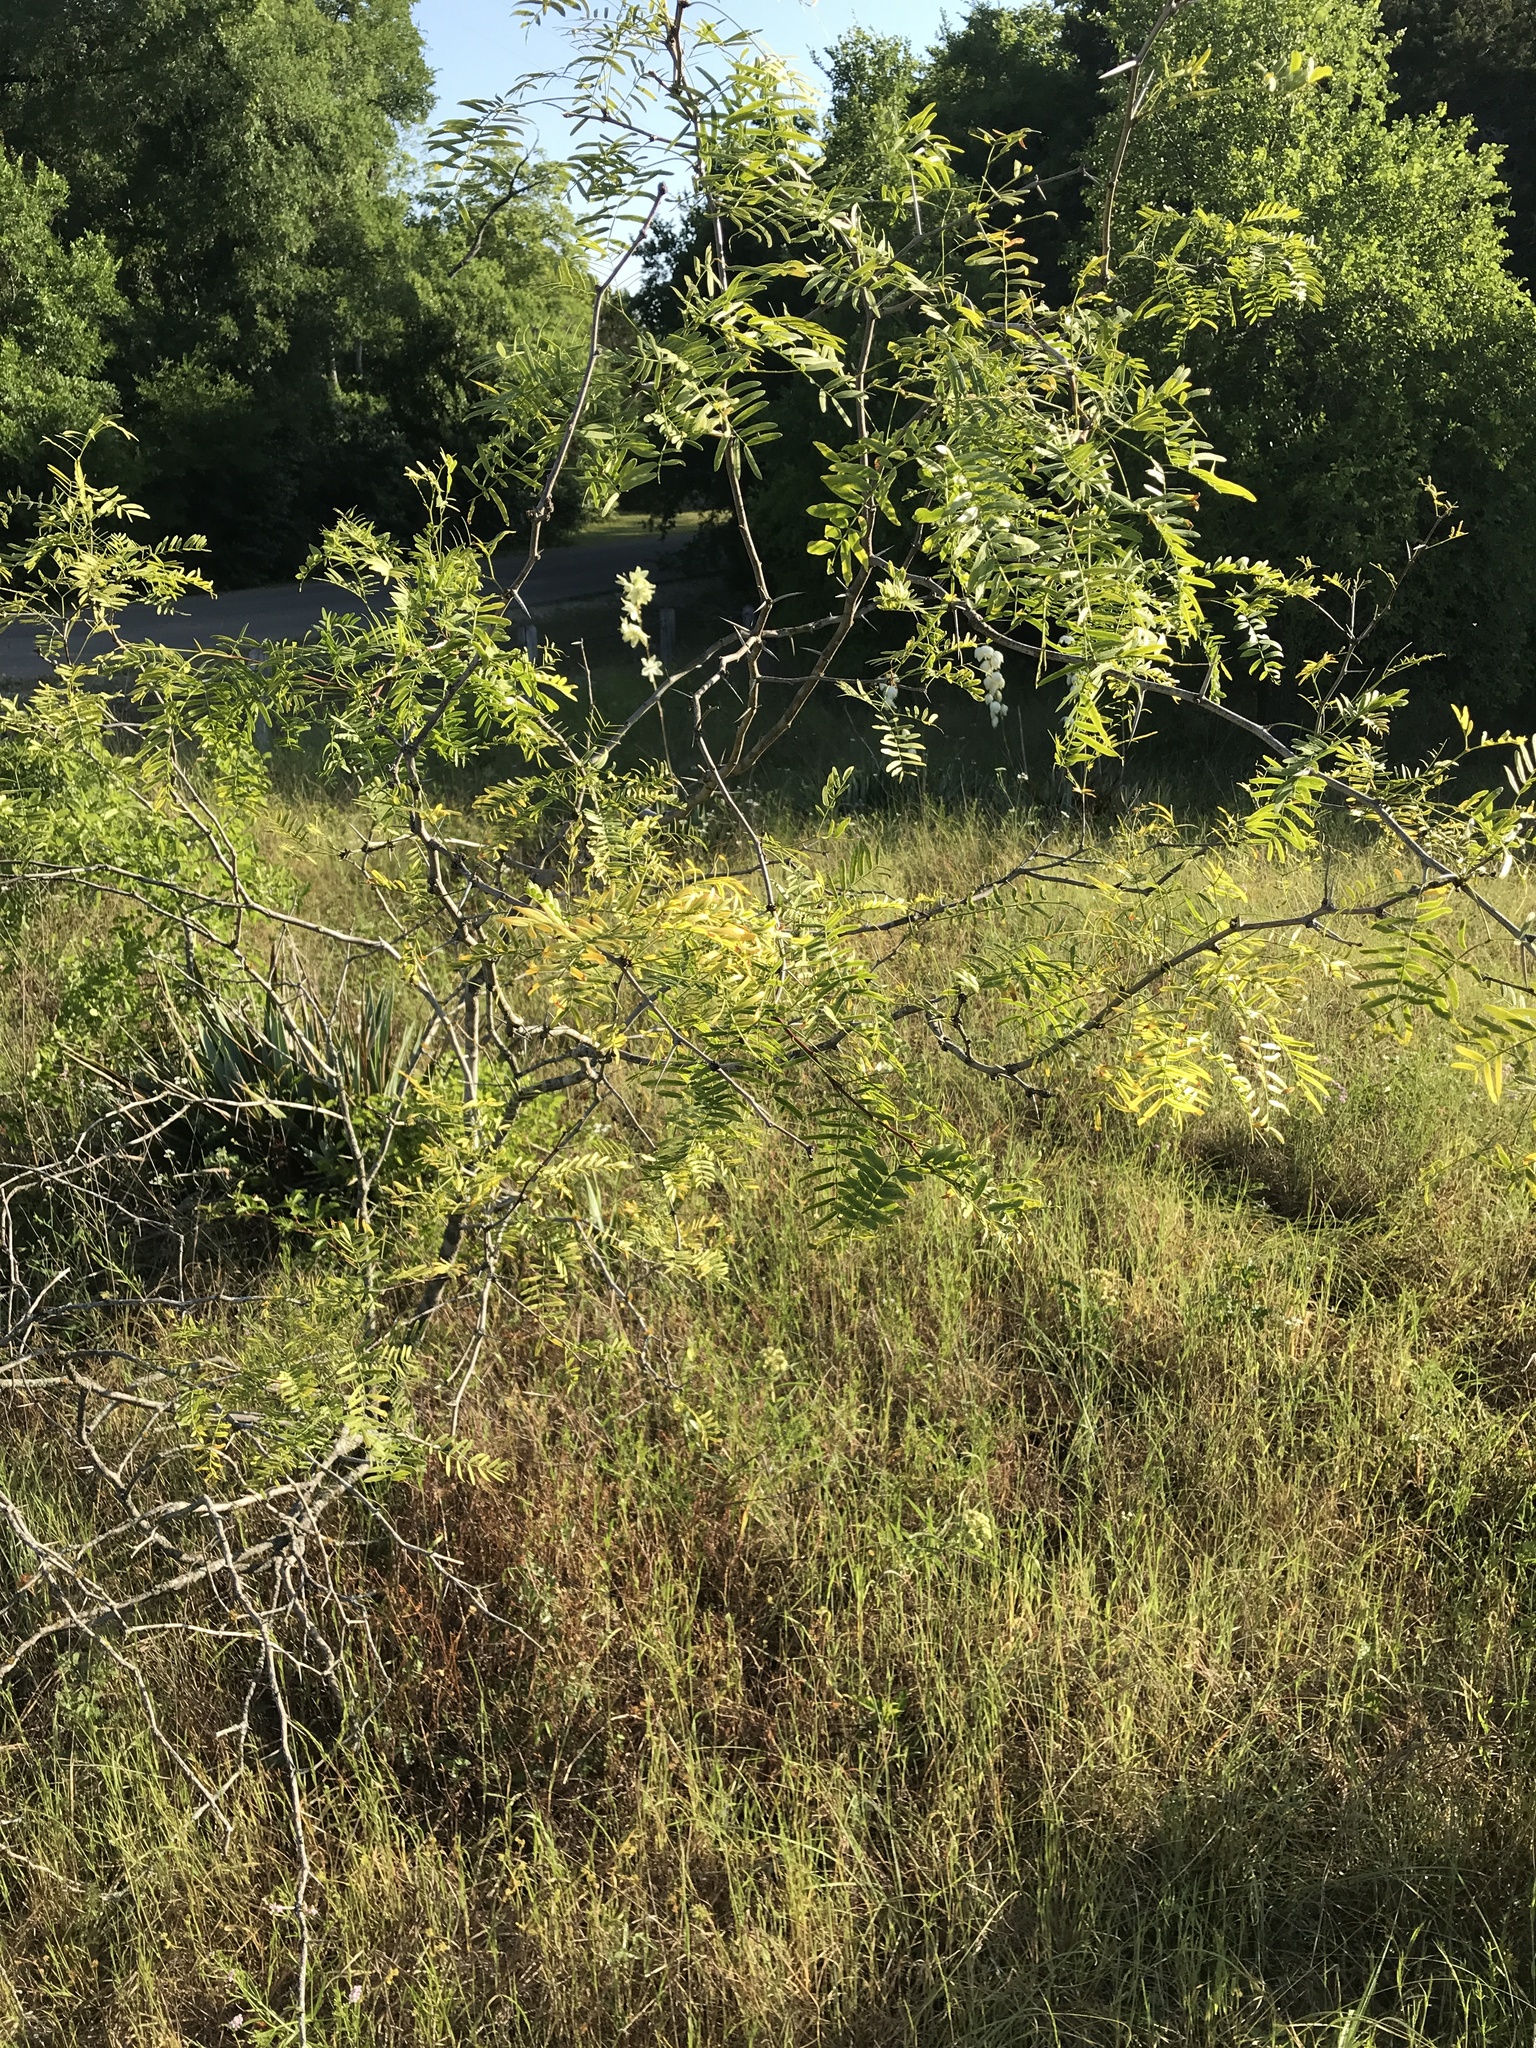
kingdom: Plantae
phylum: Tracheophyta
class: Magnoliopsida
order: Fabales
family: Fabaceae
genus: Prosopis
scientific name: Prosopis glandulosa
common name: Honey mesquite
